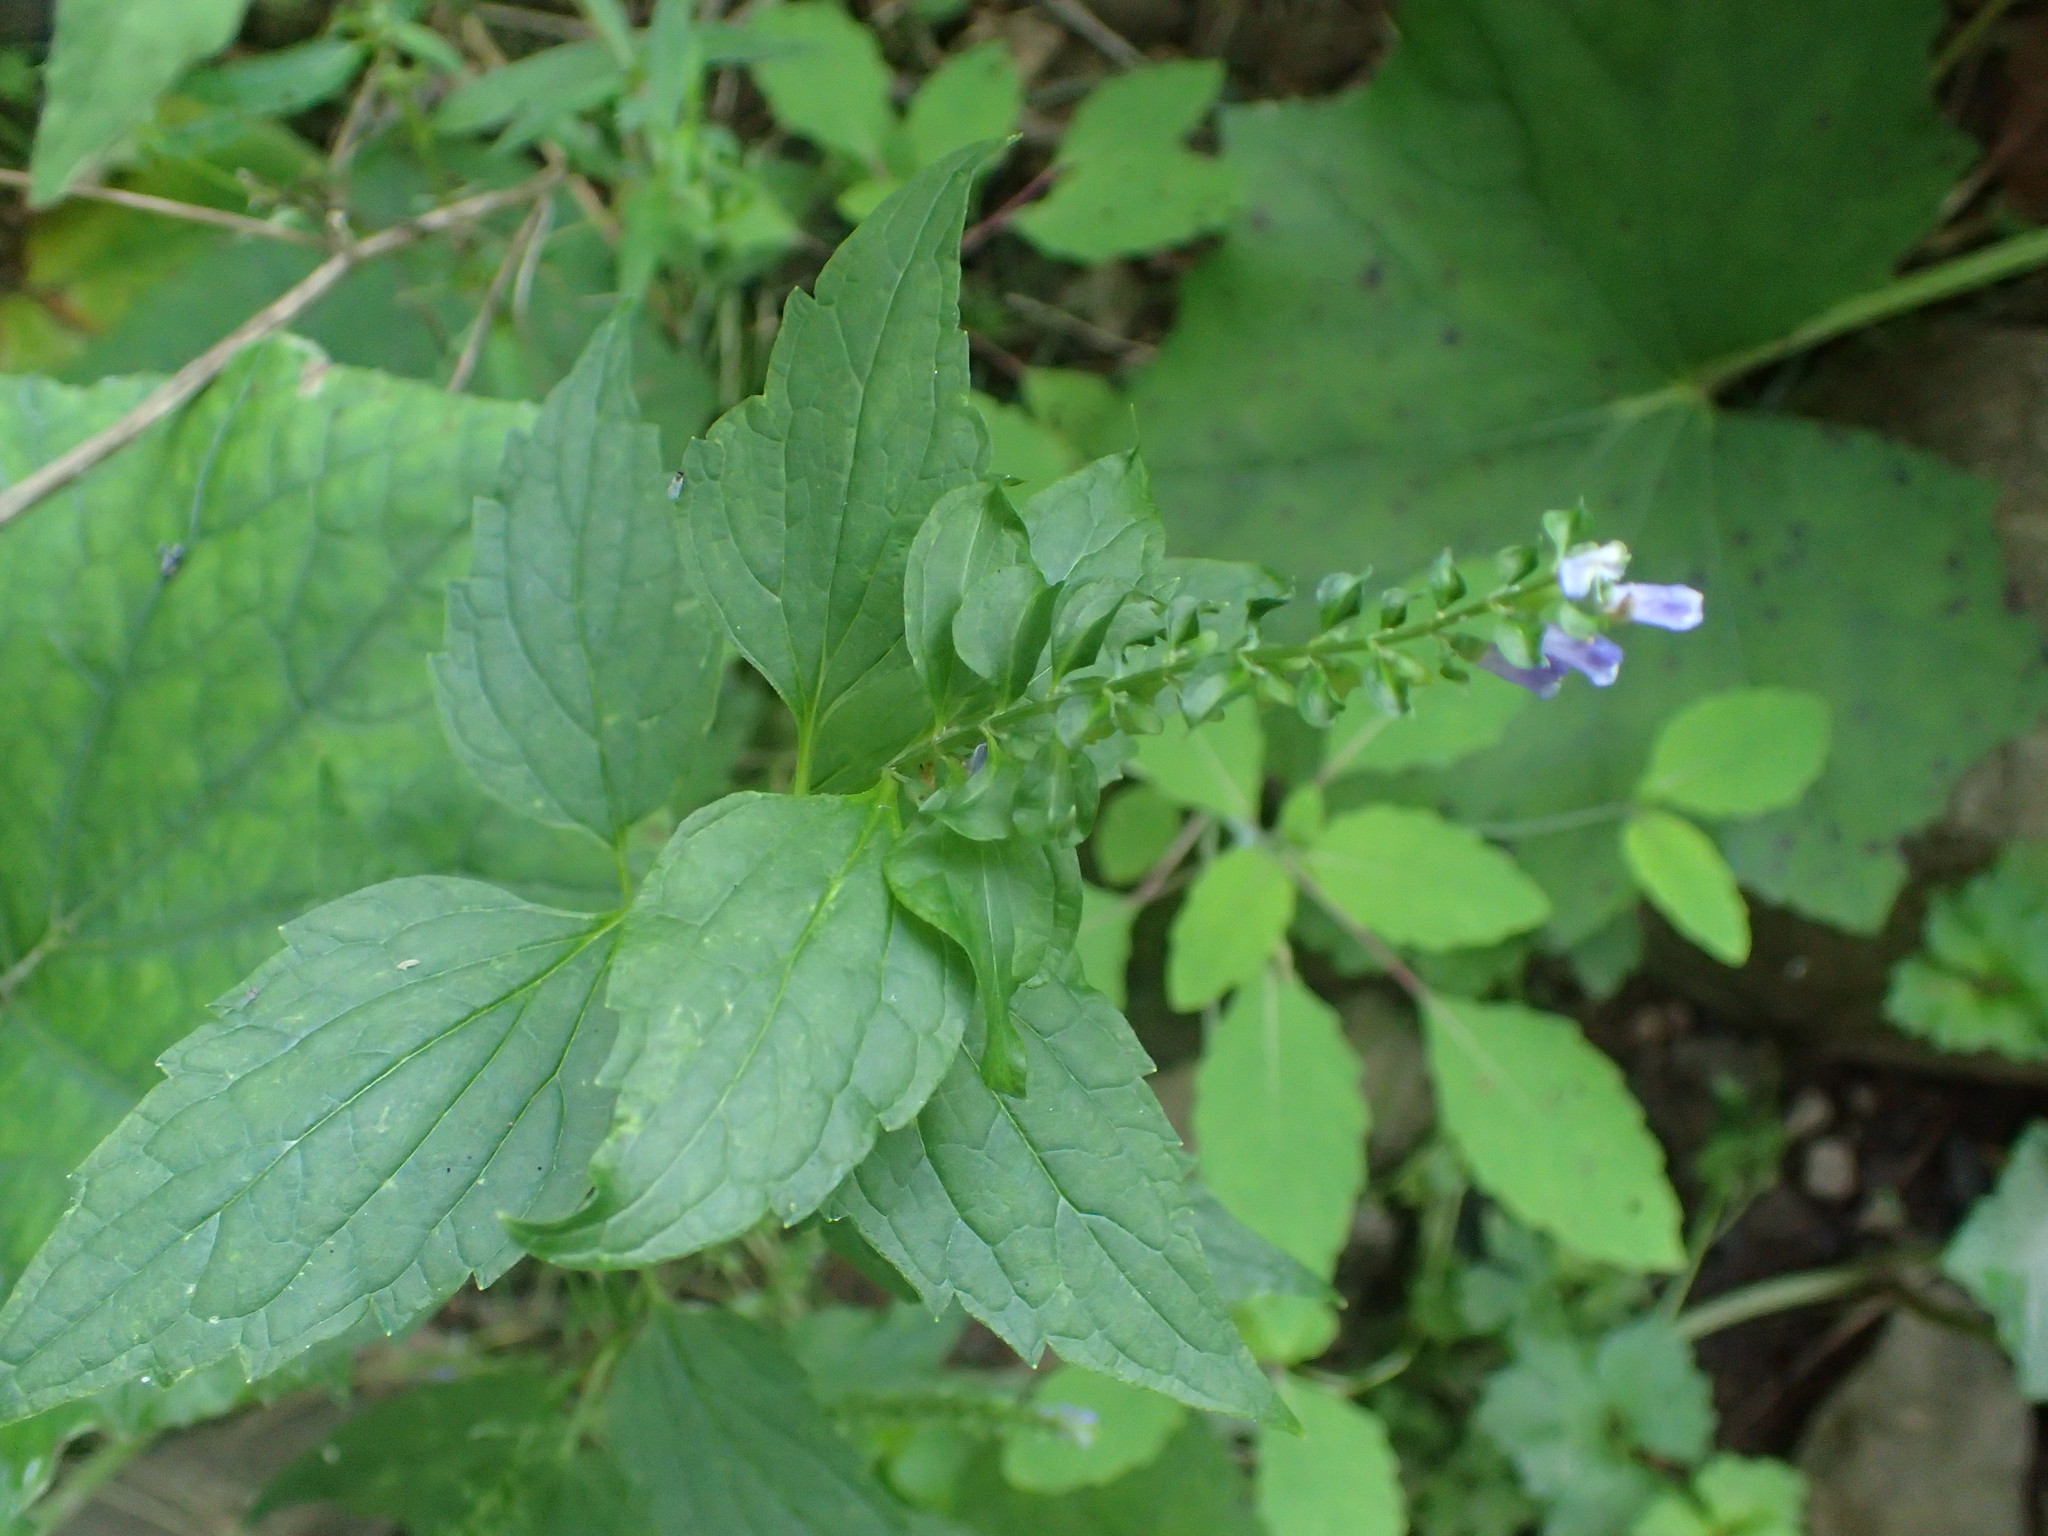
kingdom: Plantae
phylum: Tracheophyta
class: Magnoliopsida
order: Lamiales
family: Lamiaceae
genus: Scutellaria
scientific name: Scutellaria lateriflora
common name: Blue skullcap
